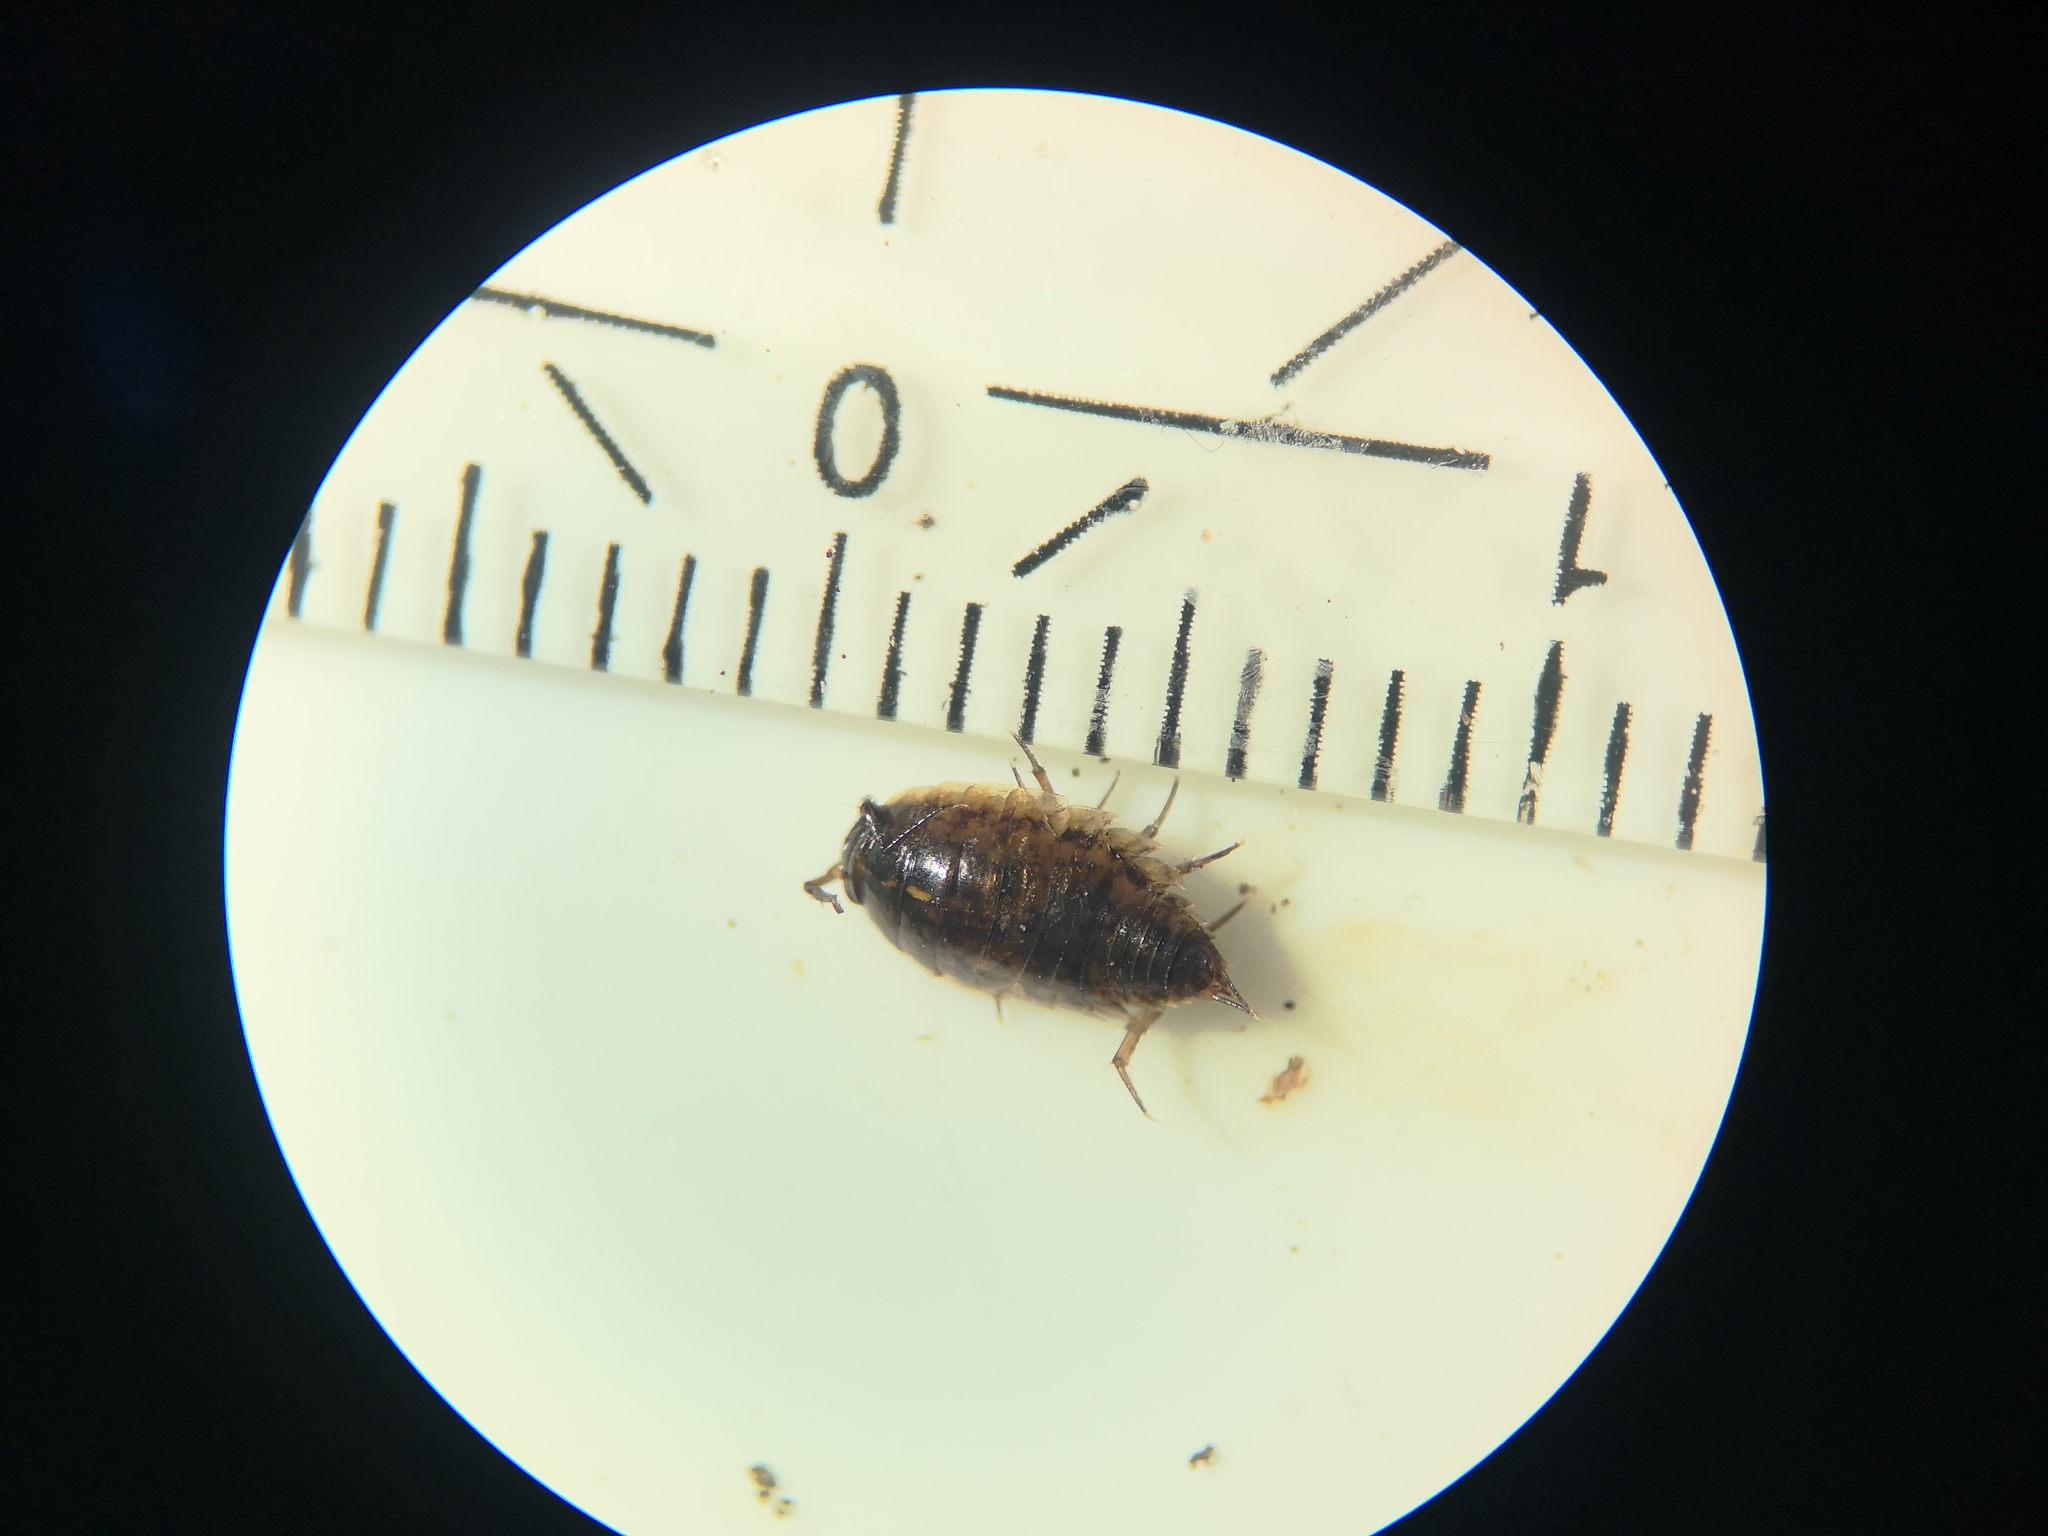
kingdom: Animalia
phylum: Arthropoda
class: Malacostraca
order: Isopoda
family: Ligiidae
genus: Ligidium
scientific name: Ligidium hypnorum
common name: Moss slater
